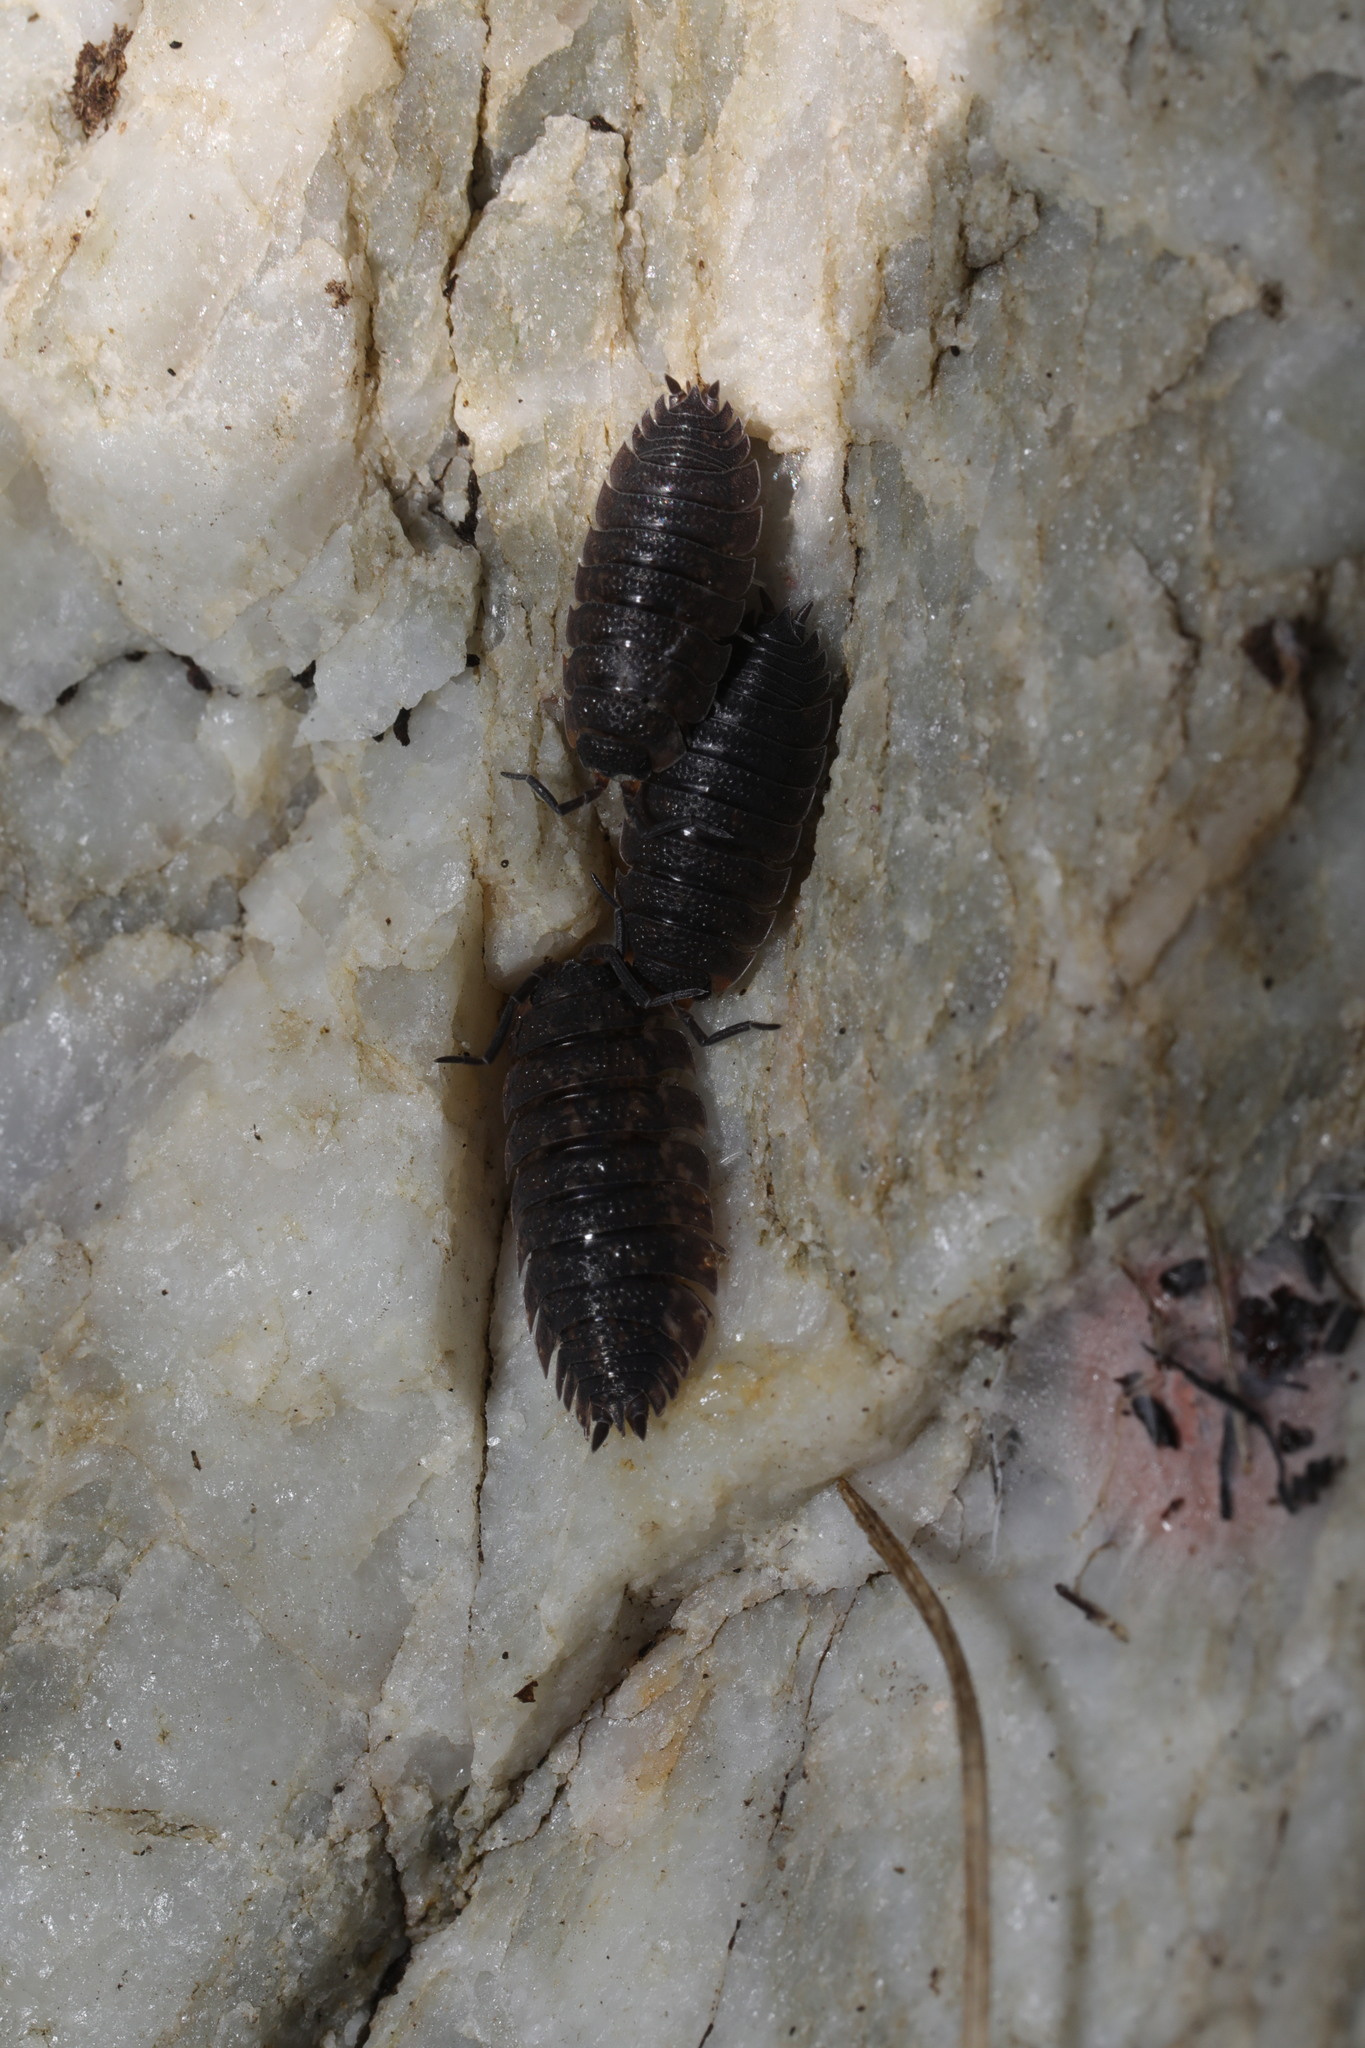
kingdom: Animalia
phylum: Arthropoda
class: Malacostraca
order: Isopoda
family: Porcellionidae
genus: Porcellio
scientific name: Porcellio scaber
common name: Common rough woodlouse
